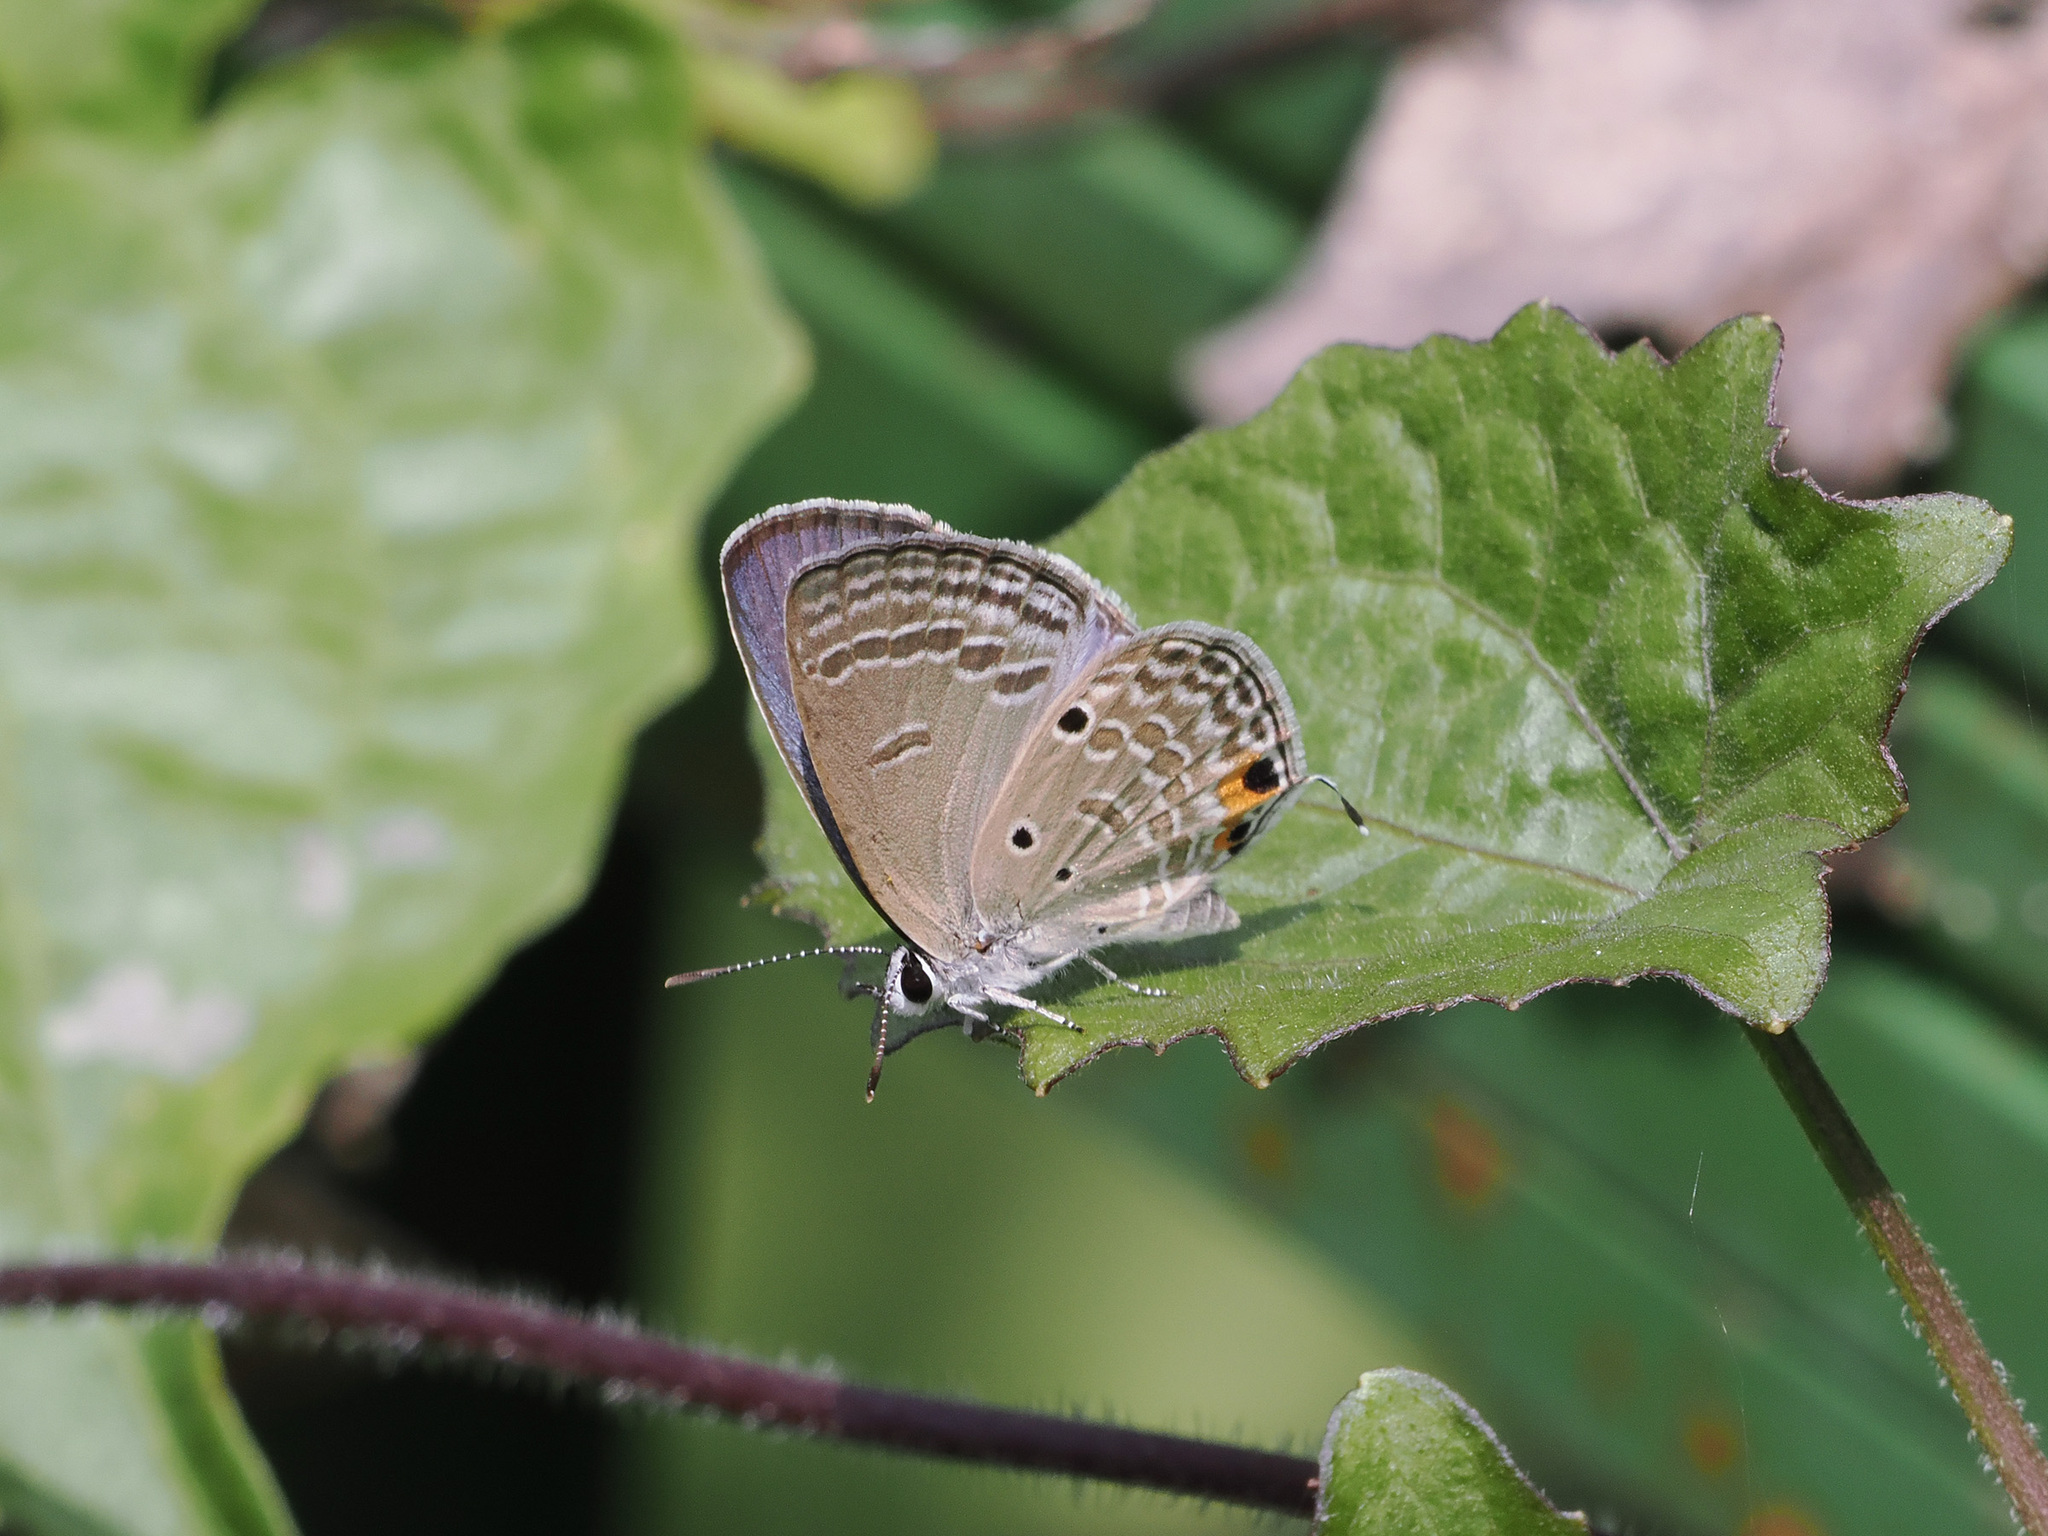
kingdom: Animalia
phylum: Arthropoda
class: Insecta
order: Lepidoptera
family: Lycaenidae
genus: Luthrodes
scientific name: Luthrodes pandava
